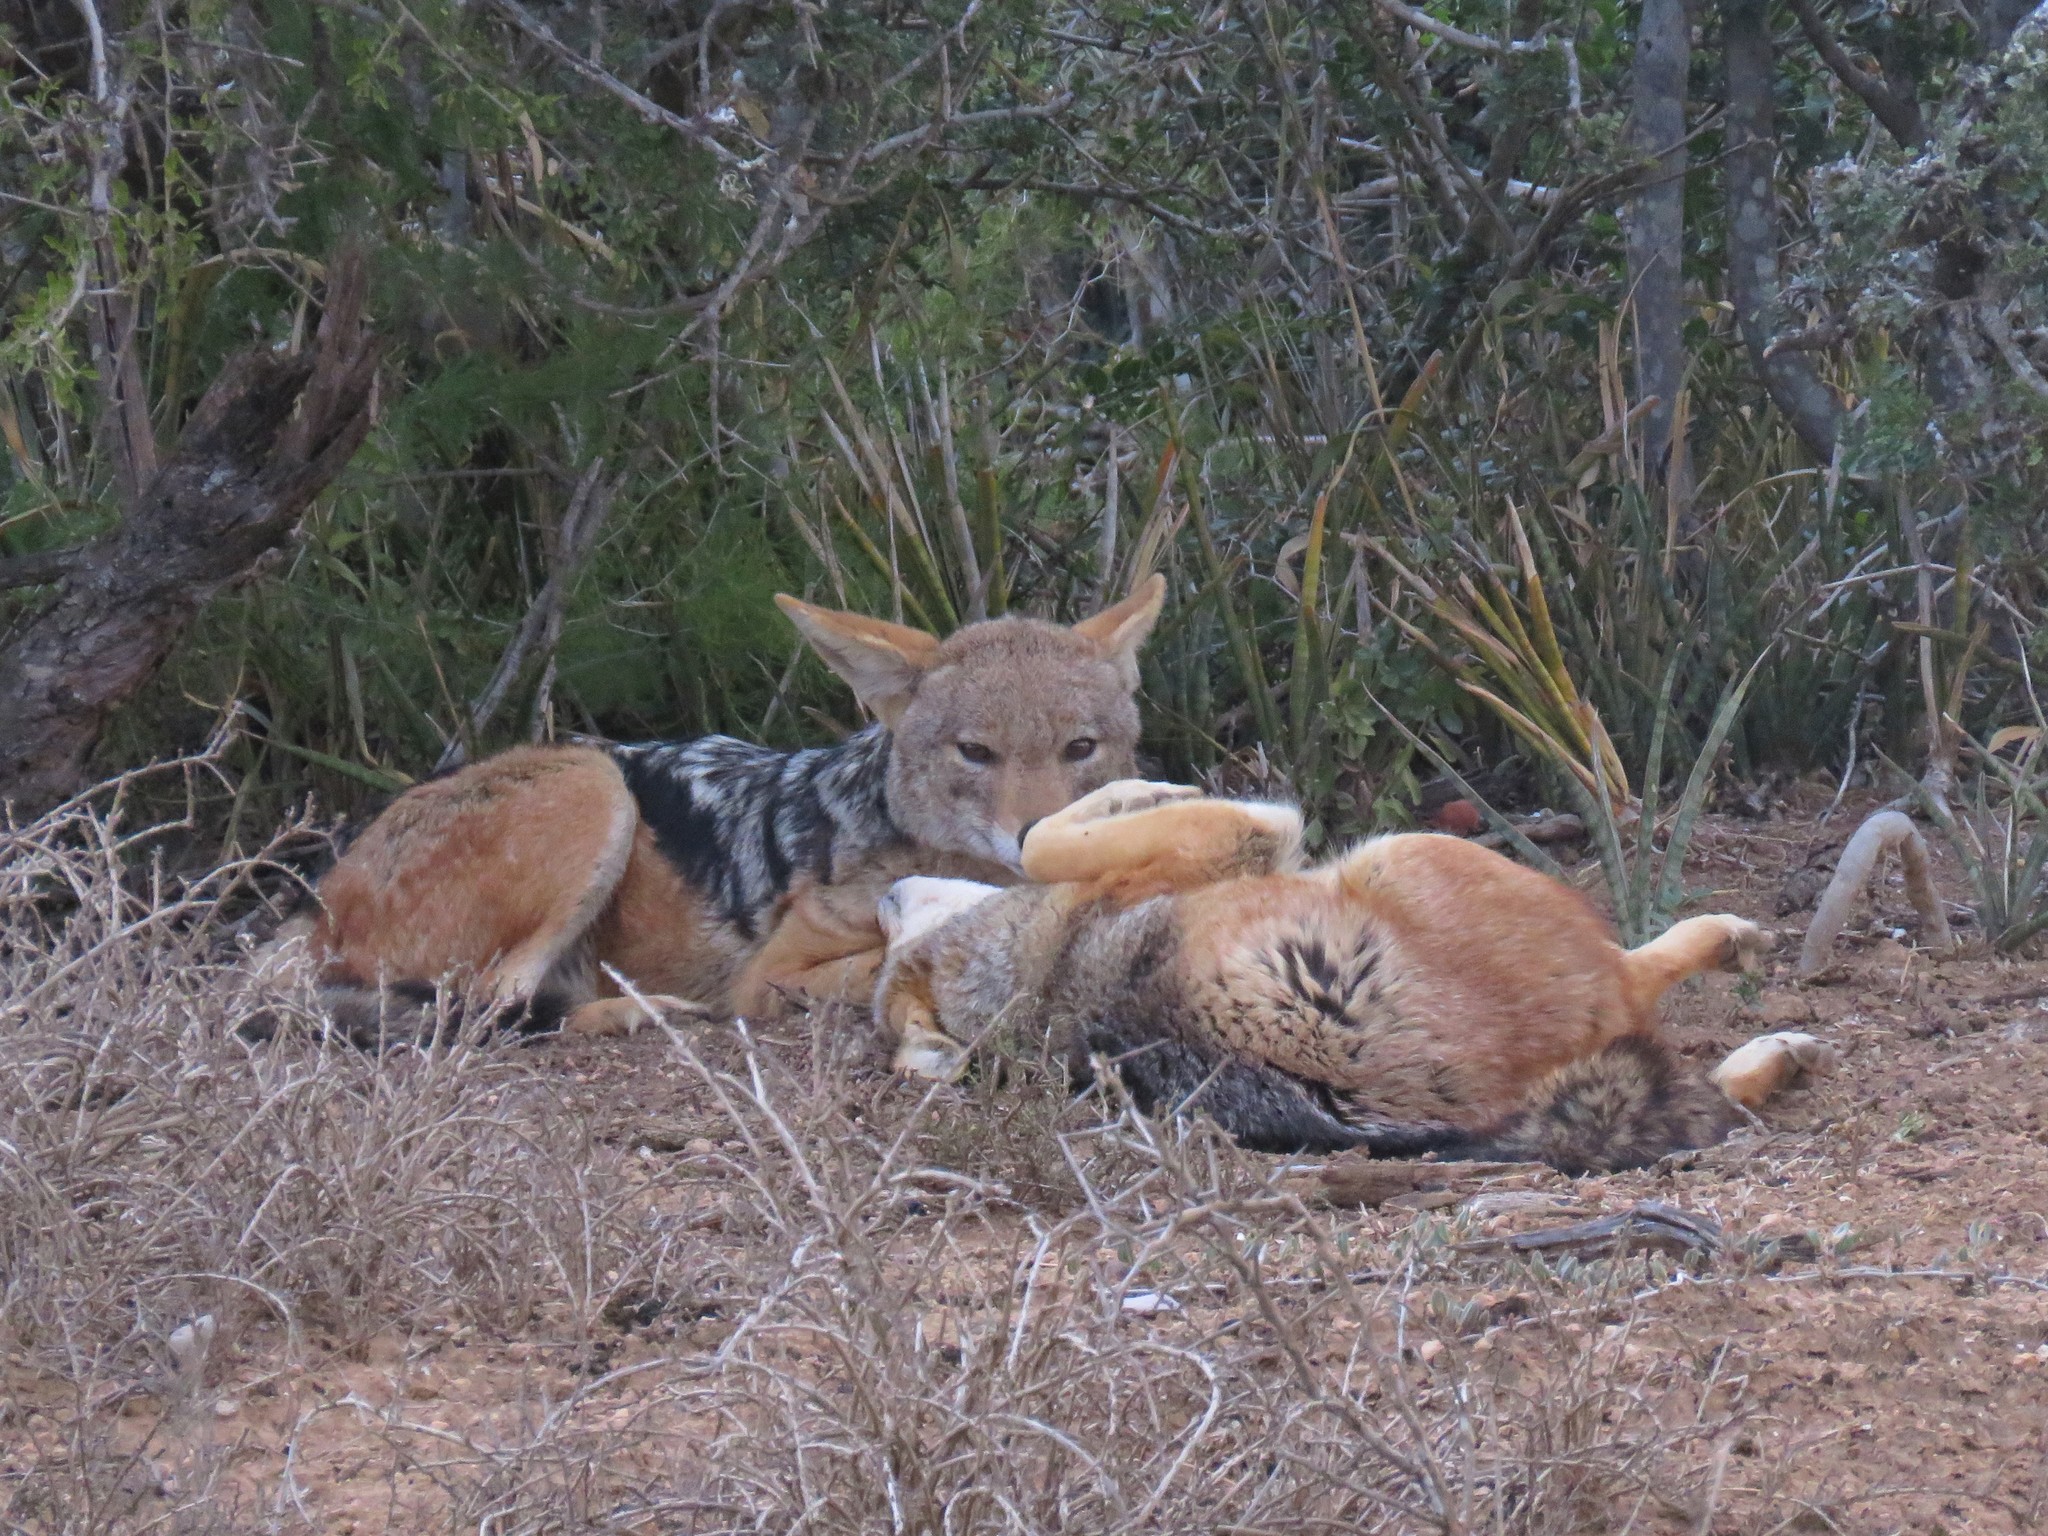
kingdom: Animalia
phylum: Chordata
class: Mammalia
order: Carnivora
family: Canidae
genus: Lupulella
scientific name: Lupulella
